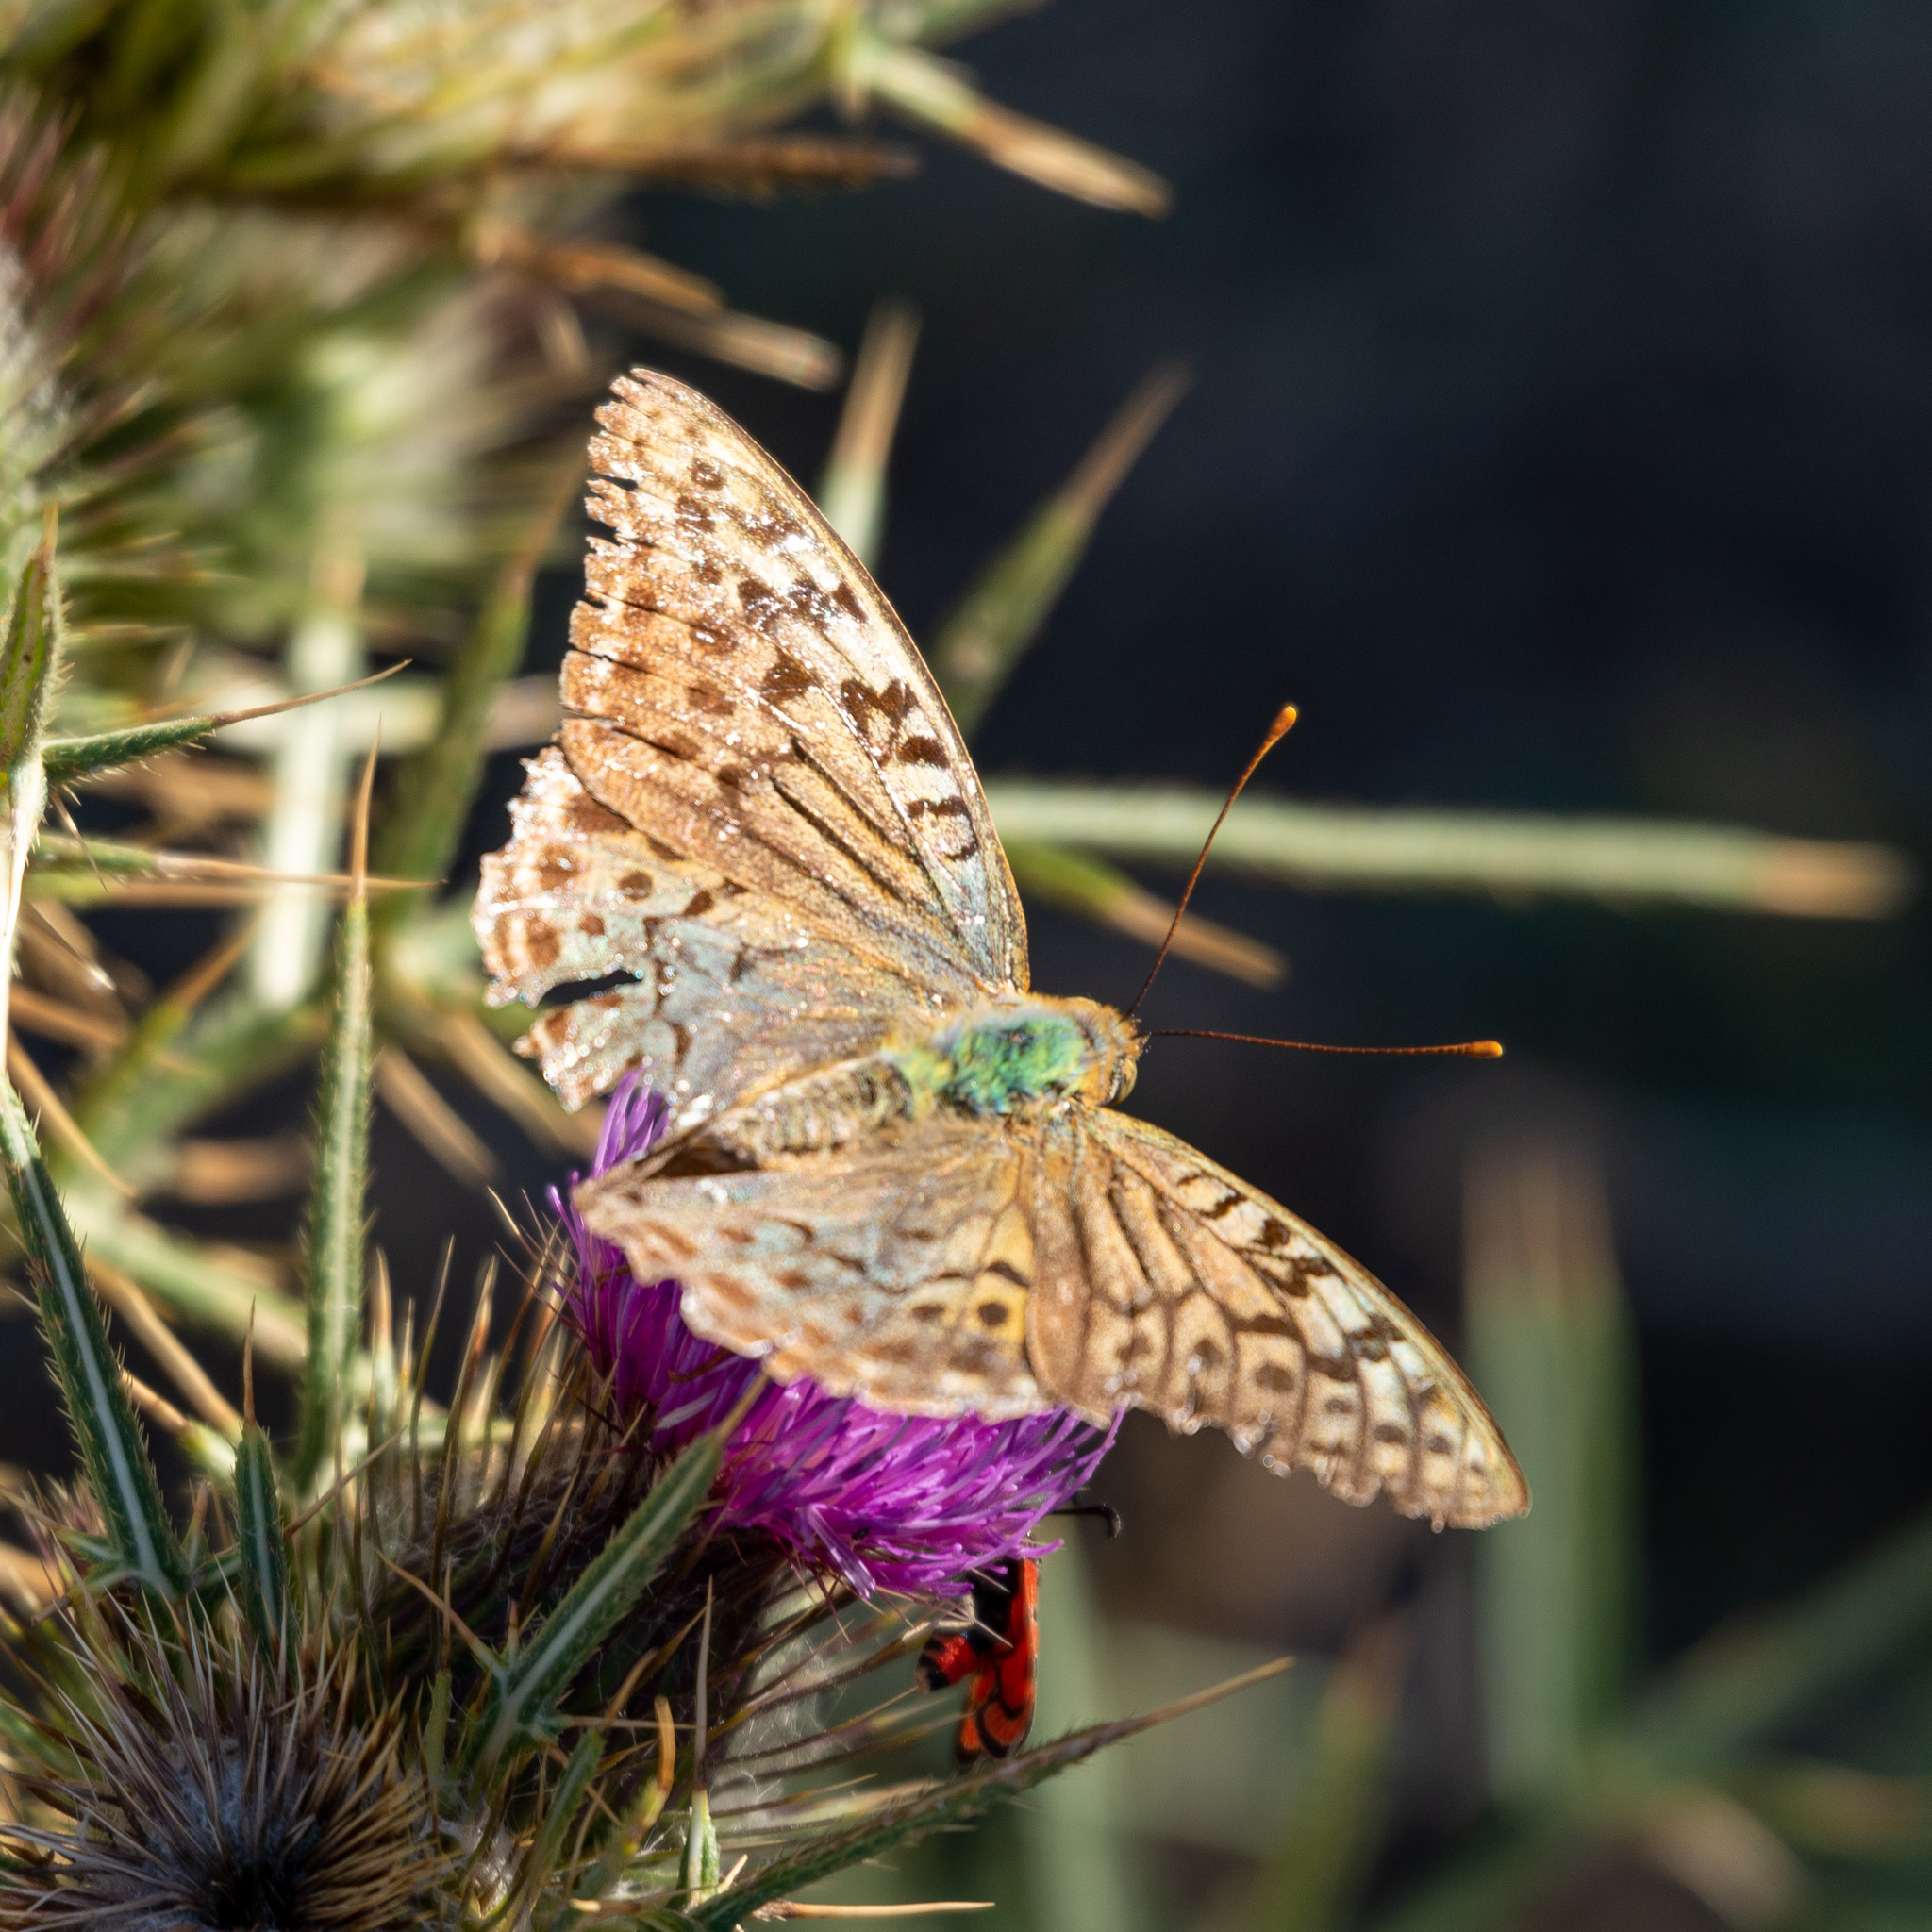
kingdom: Animalia
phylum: Arthropoda
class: Insecta
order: Lepidoptera
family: Nymphalidae
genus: Damora
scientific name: Damora pandora
